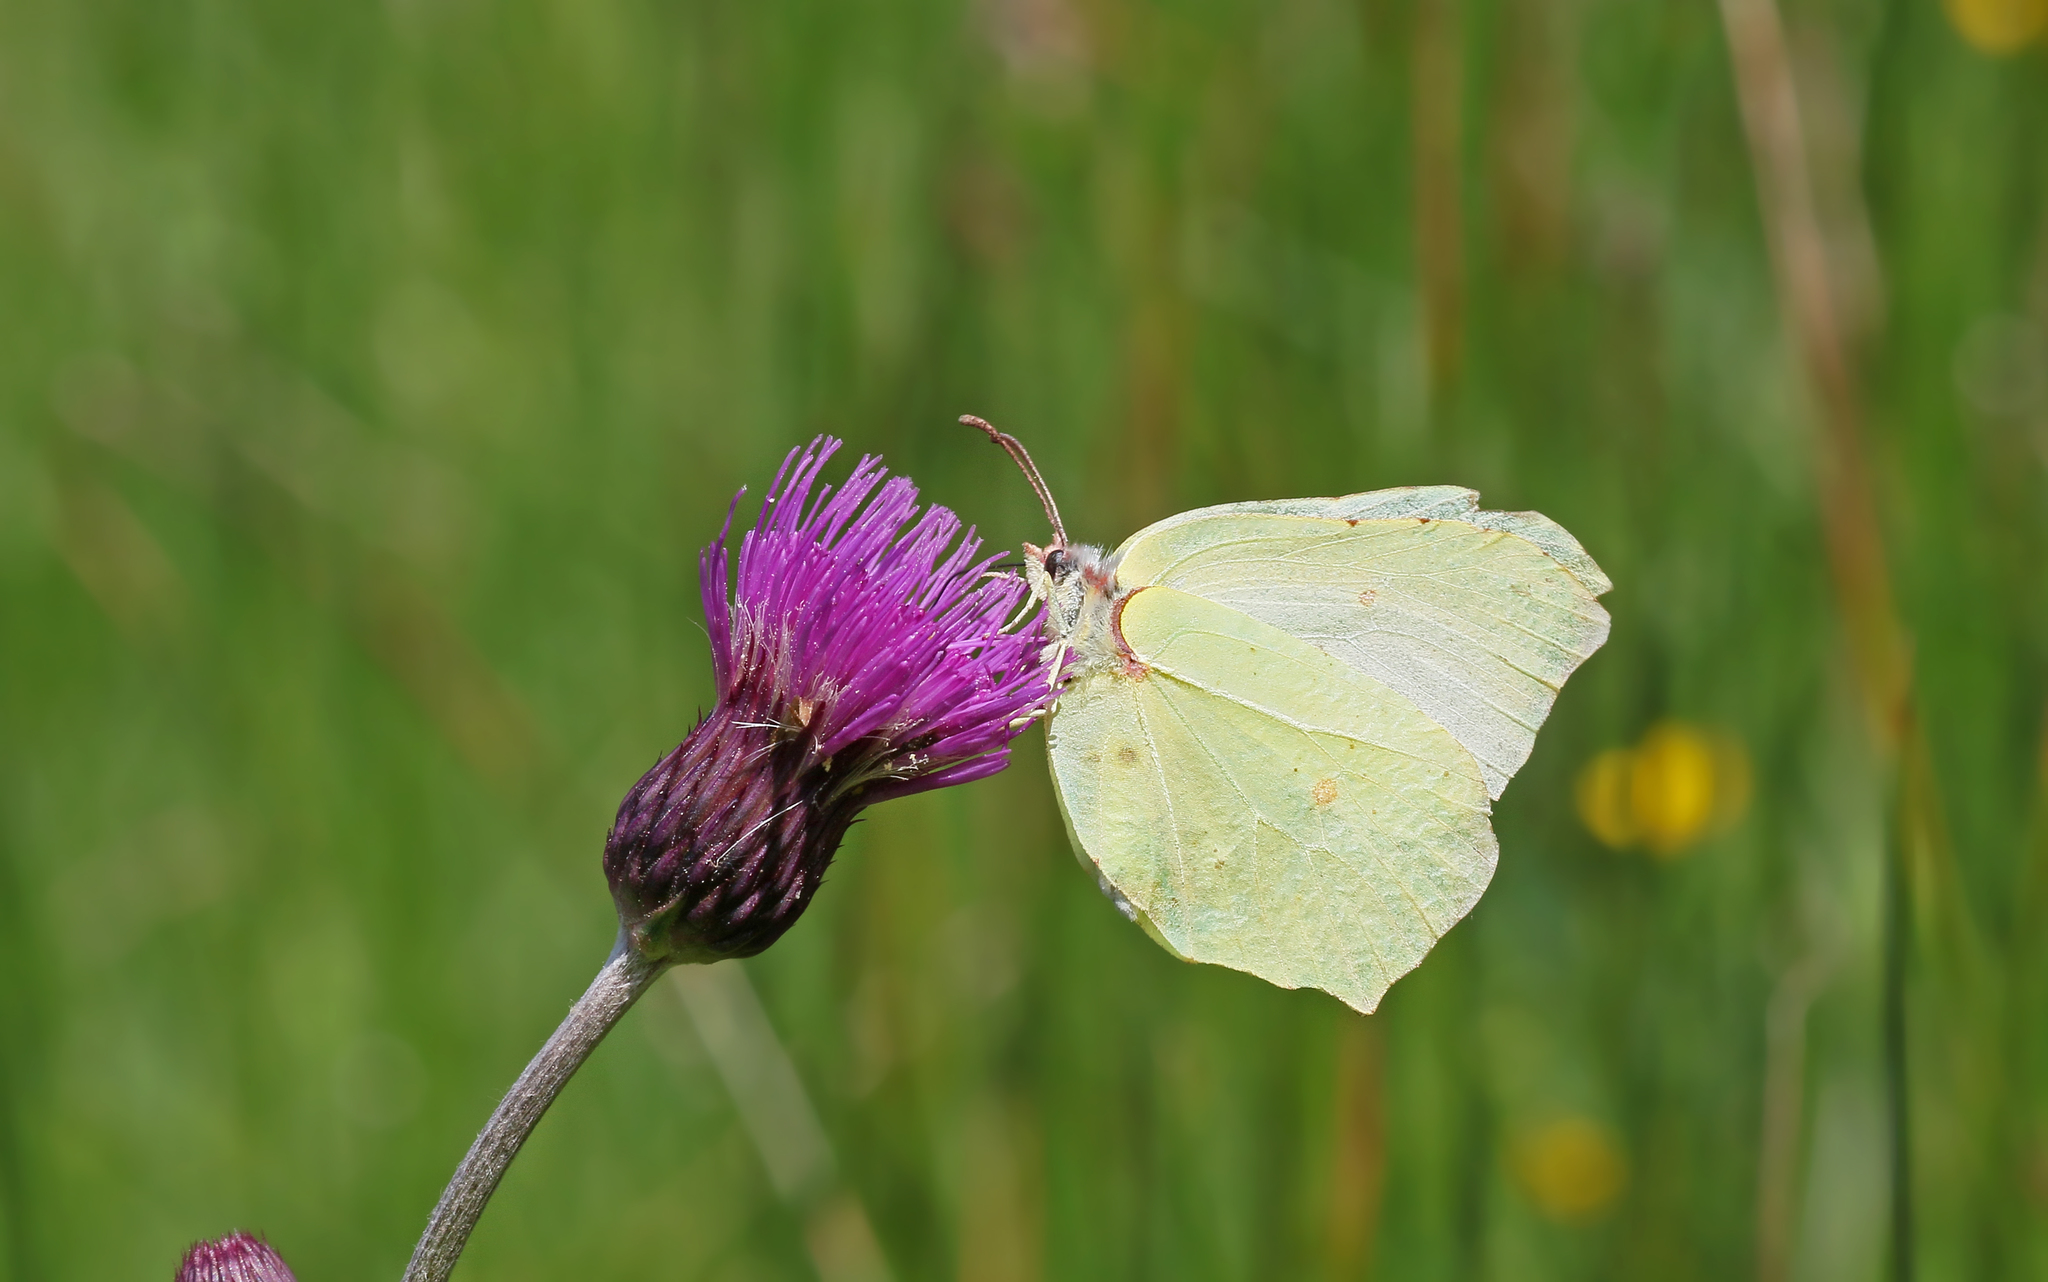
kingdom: Animalia
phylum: Arthropoda
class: Insecta
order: Lepidoptera
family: Pieridae
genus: Gonepteryx
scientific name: Gonepteryx rhamni
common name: Brimstone
